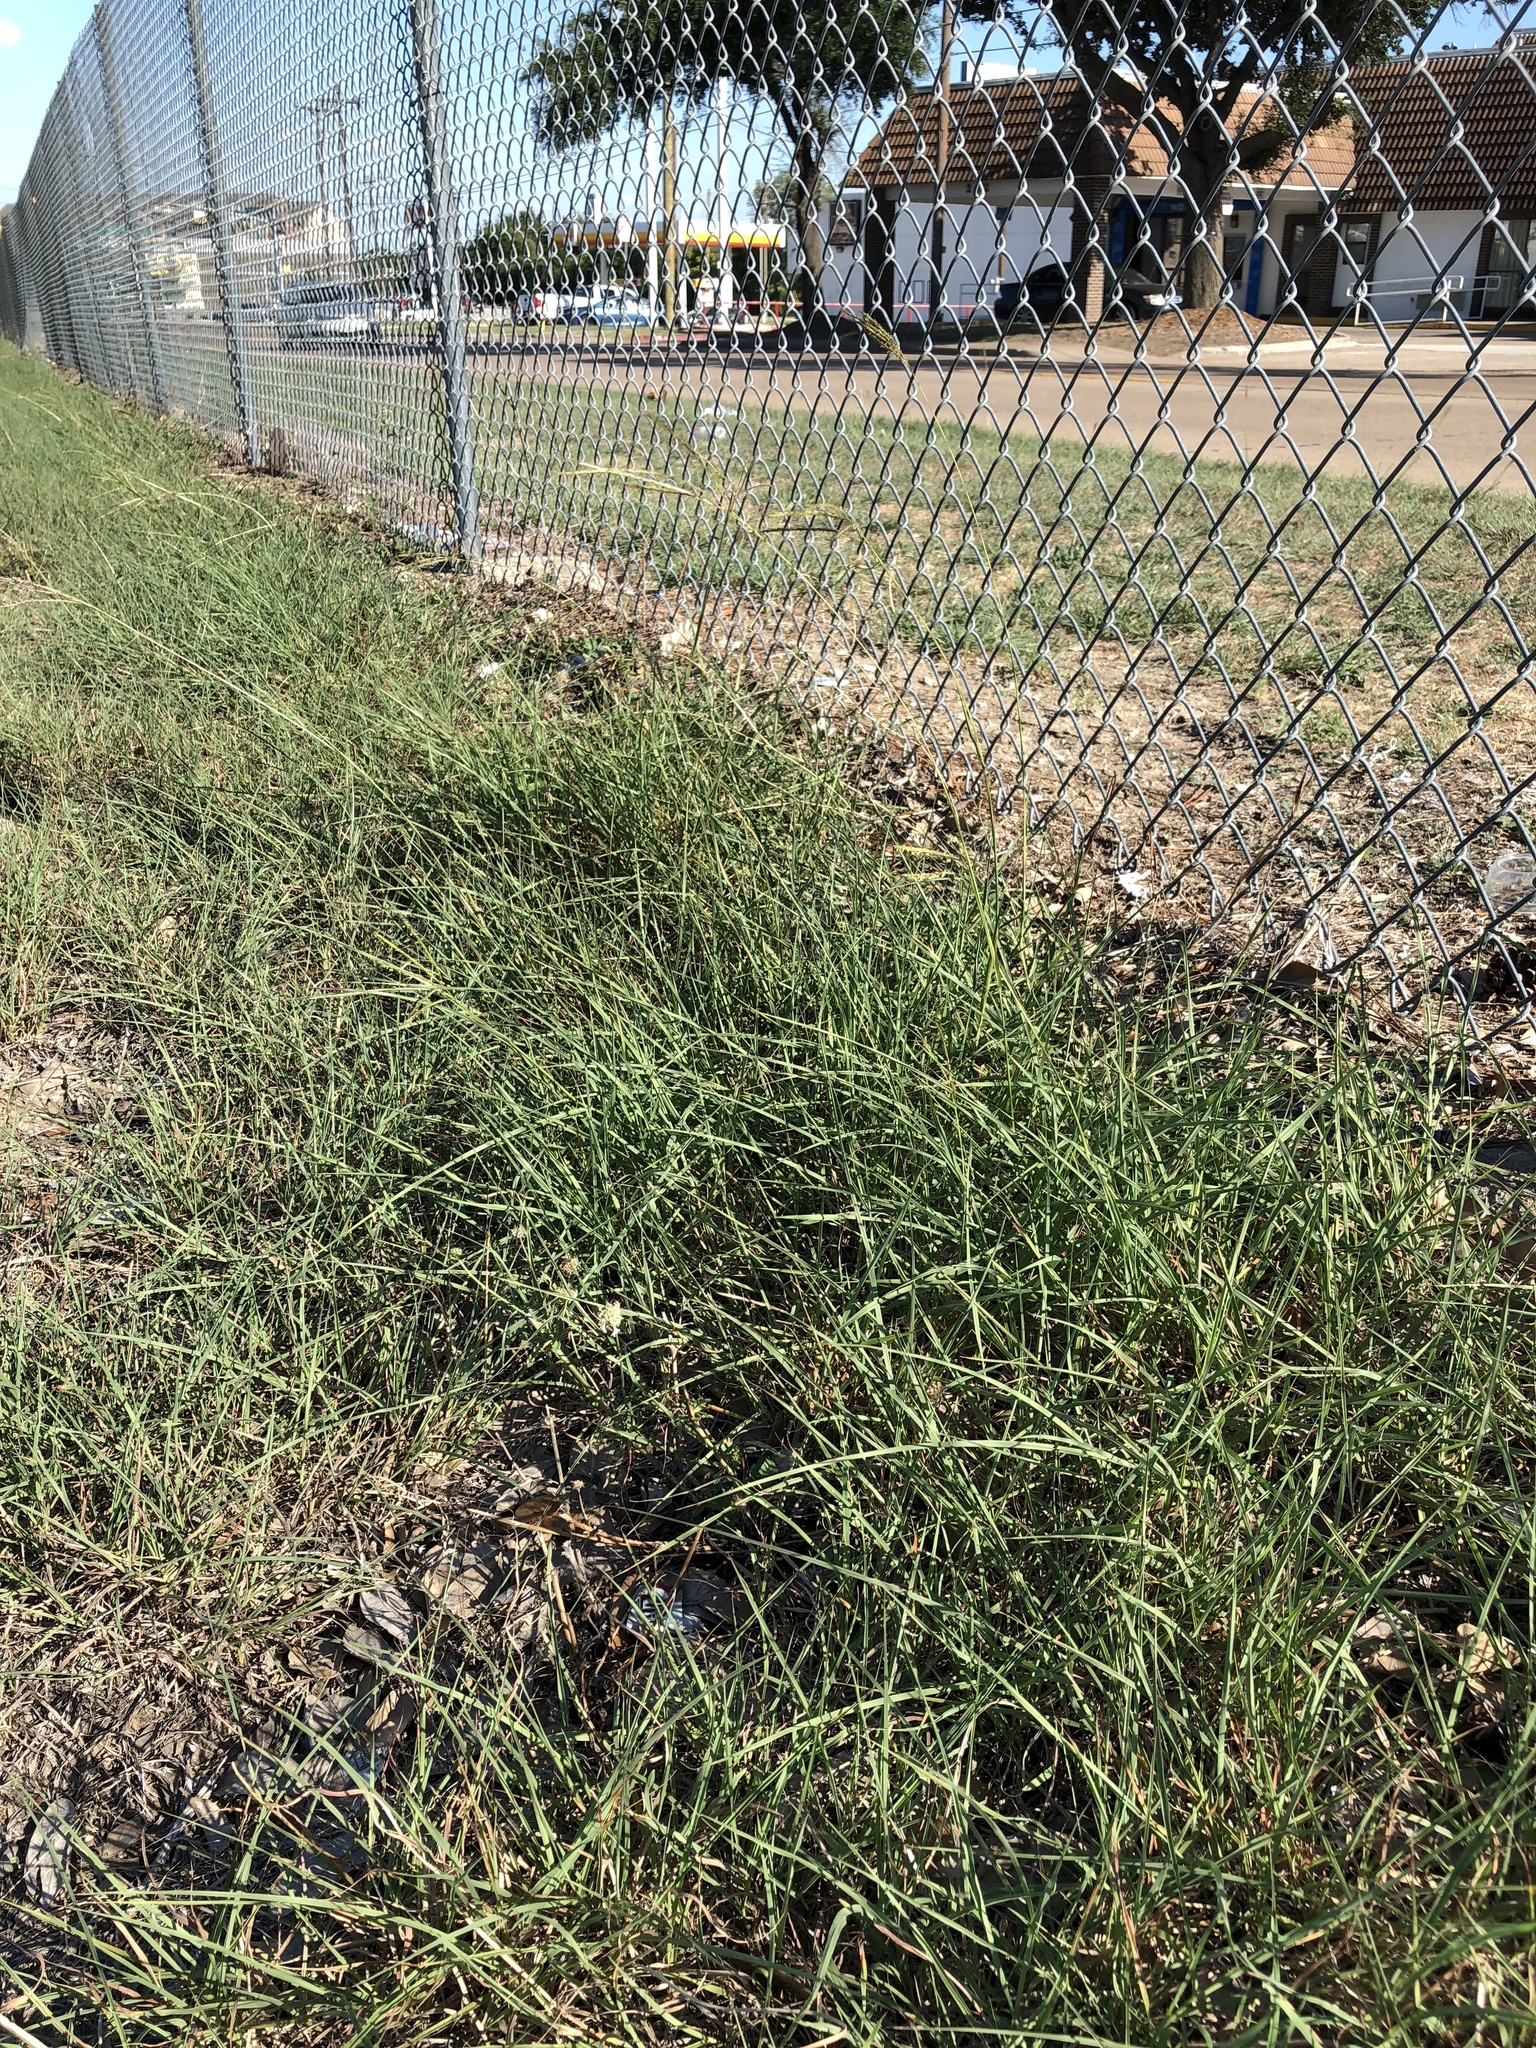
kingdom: Plantae
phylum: Tracheophyta
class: Liliopsida
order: Poales
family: Poaceae
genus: Bothriochloa
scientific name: Bothriochloa ischaemum
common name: Yellow bluestem
